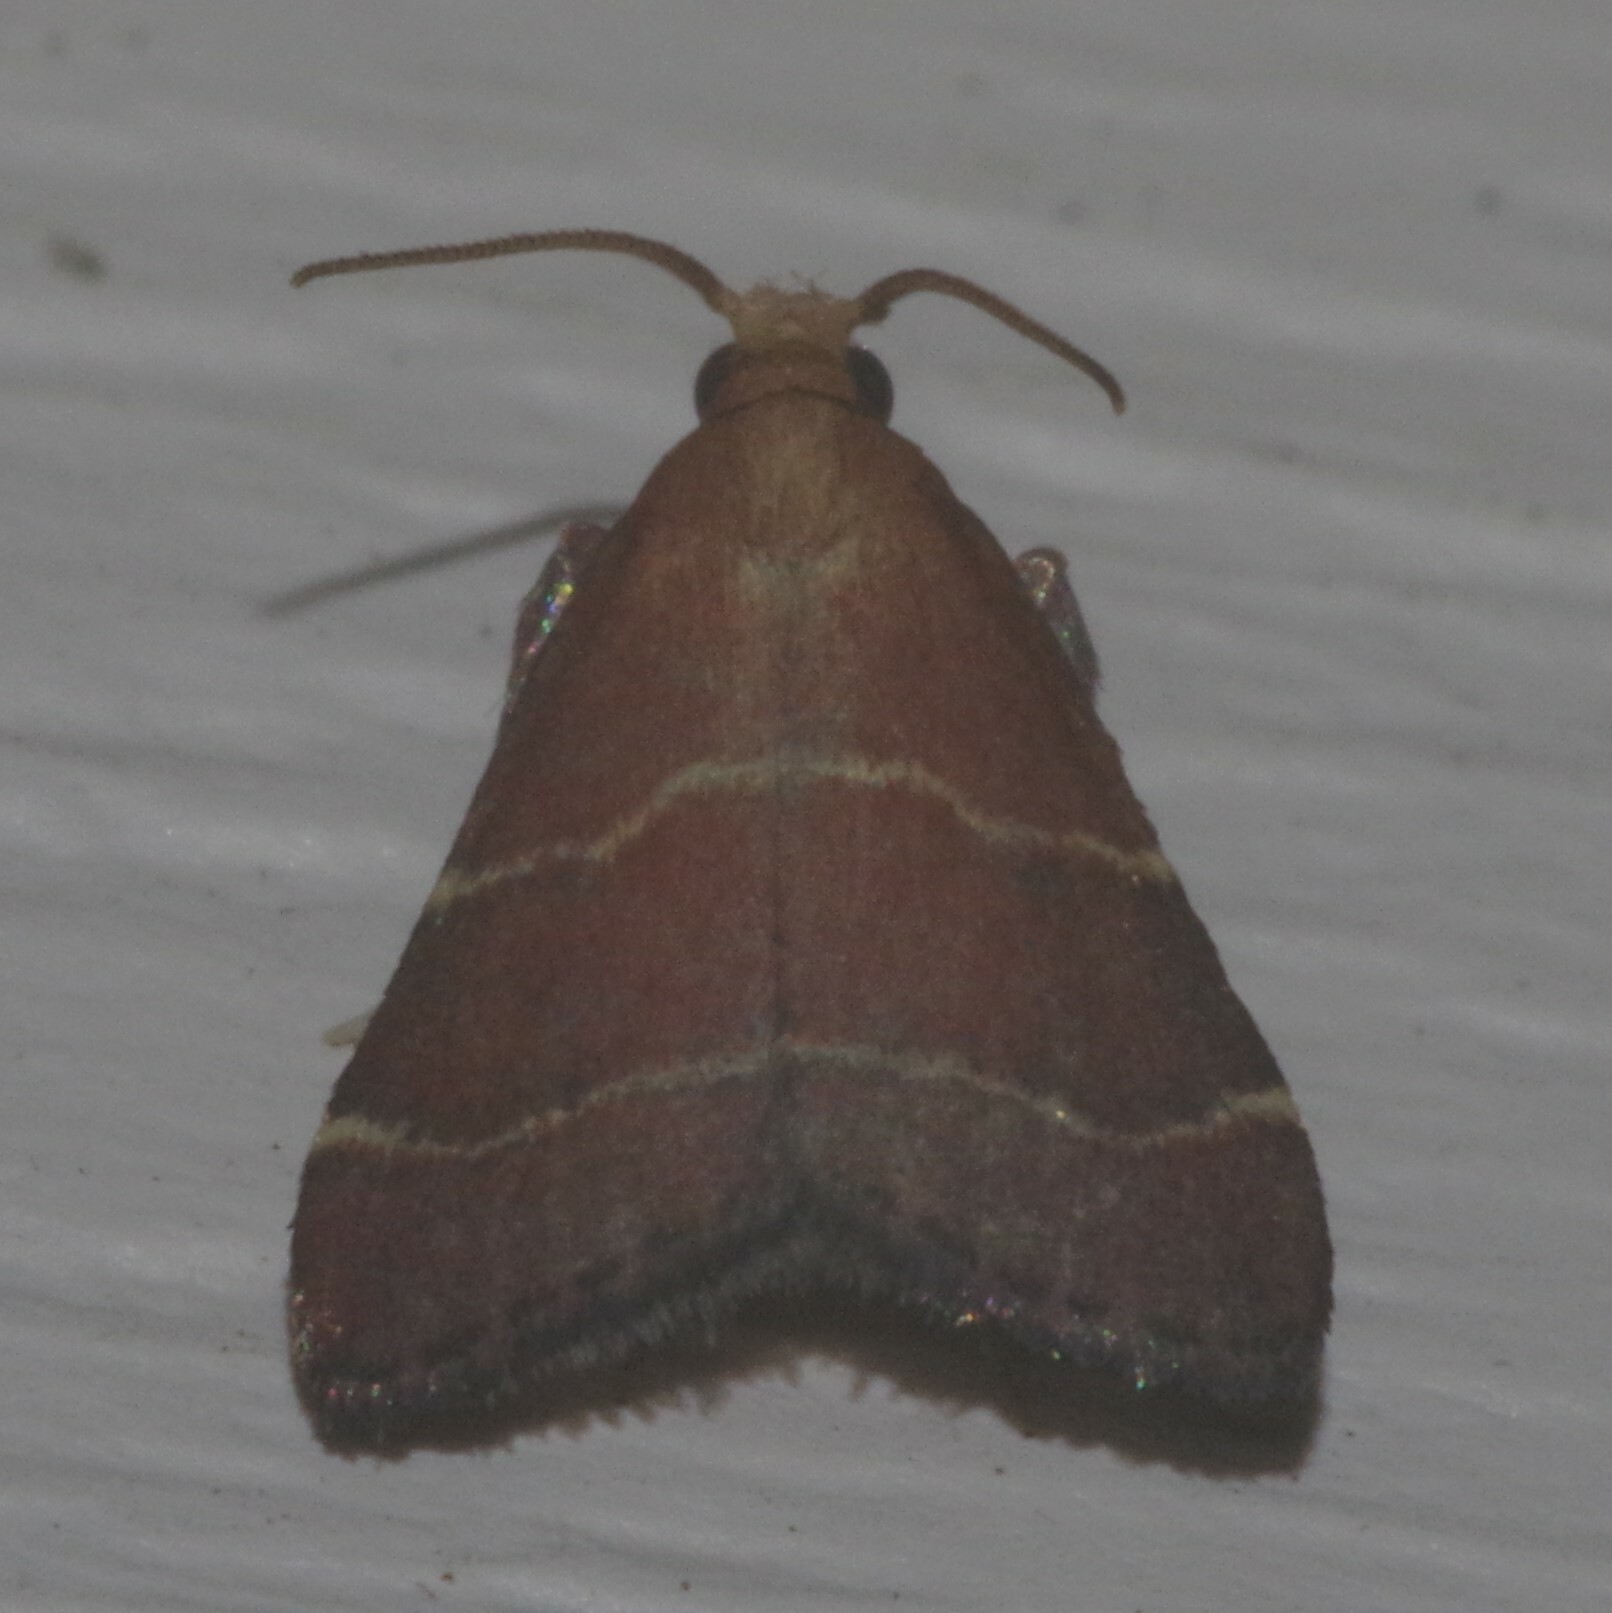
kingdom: Animalia
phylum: Arthropoda
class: Insecta
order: Lepidoptera
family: Pyralidae
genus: Arta
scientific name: Arta statalis
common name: Posturing arta moth
